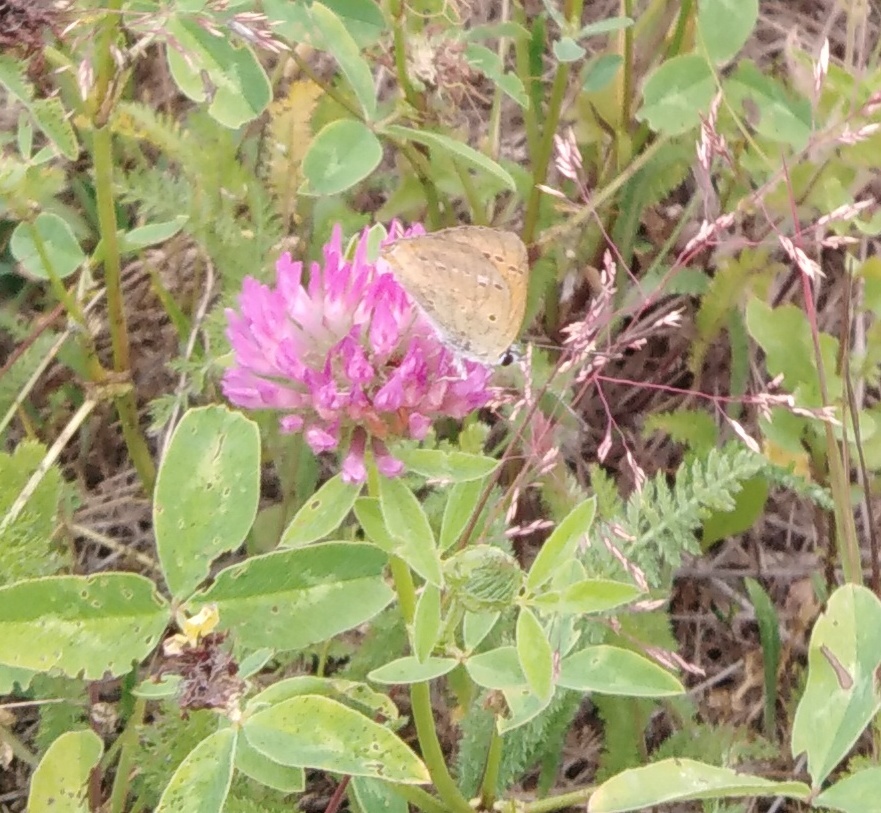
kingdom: Animalia
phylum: Arthropoda
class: Insecta
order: Lepidoptera
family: Lycaenidae
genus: Lycaena
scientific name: Lycaena virgaureae
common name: Scarce copper
